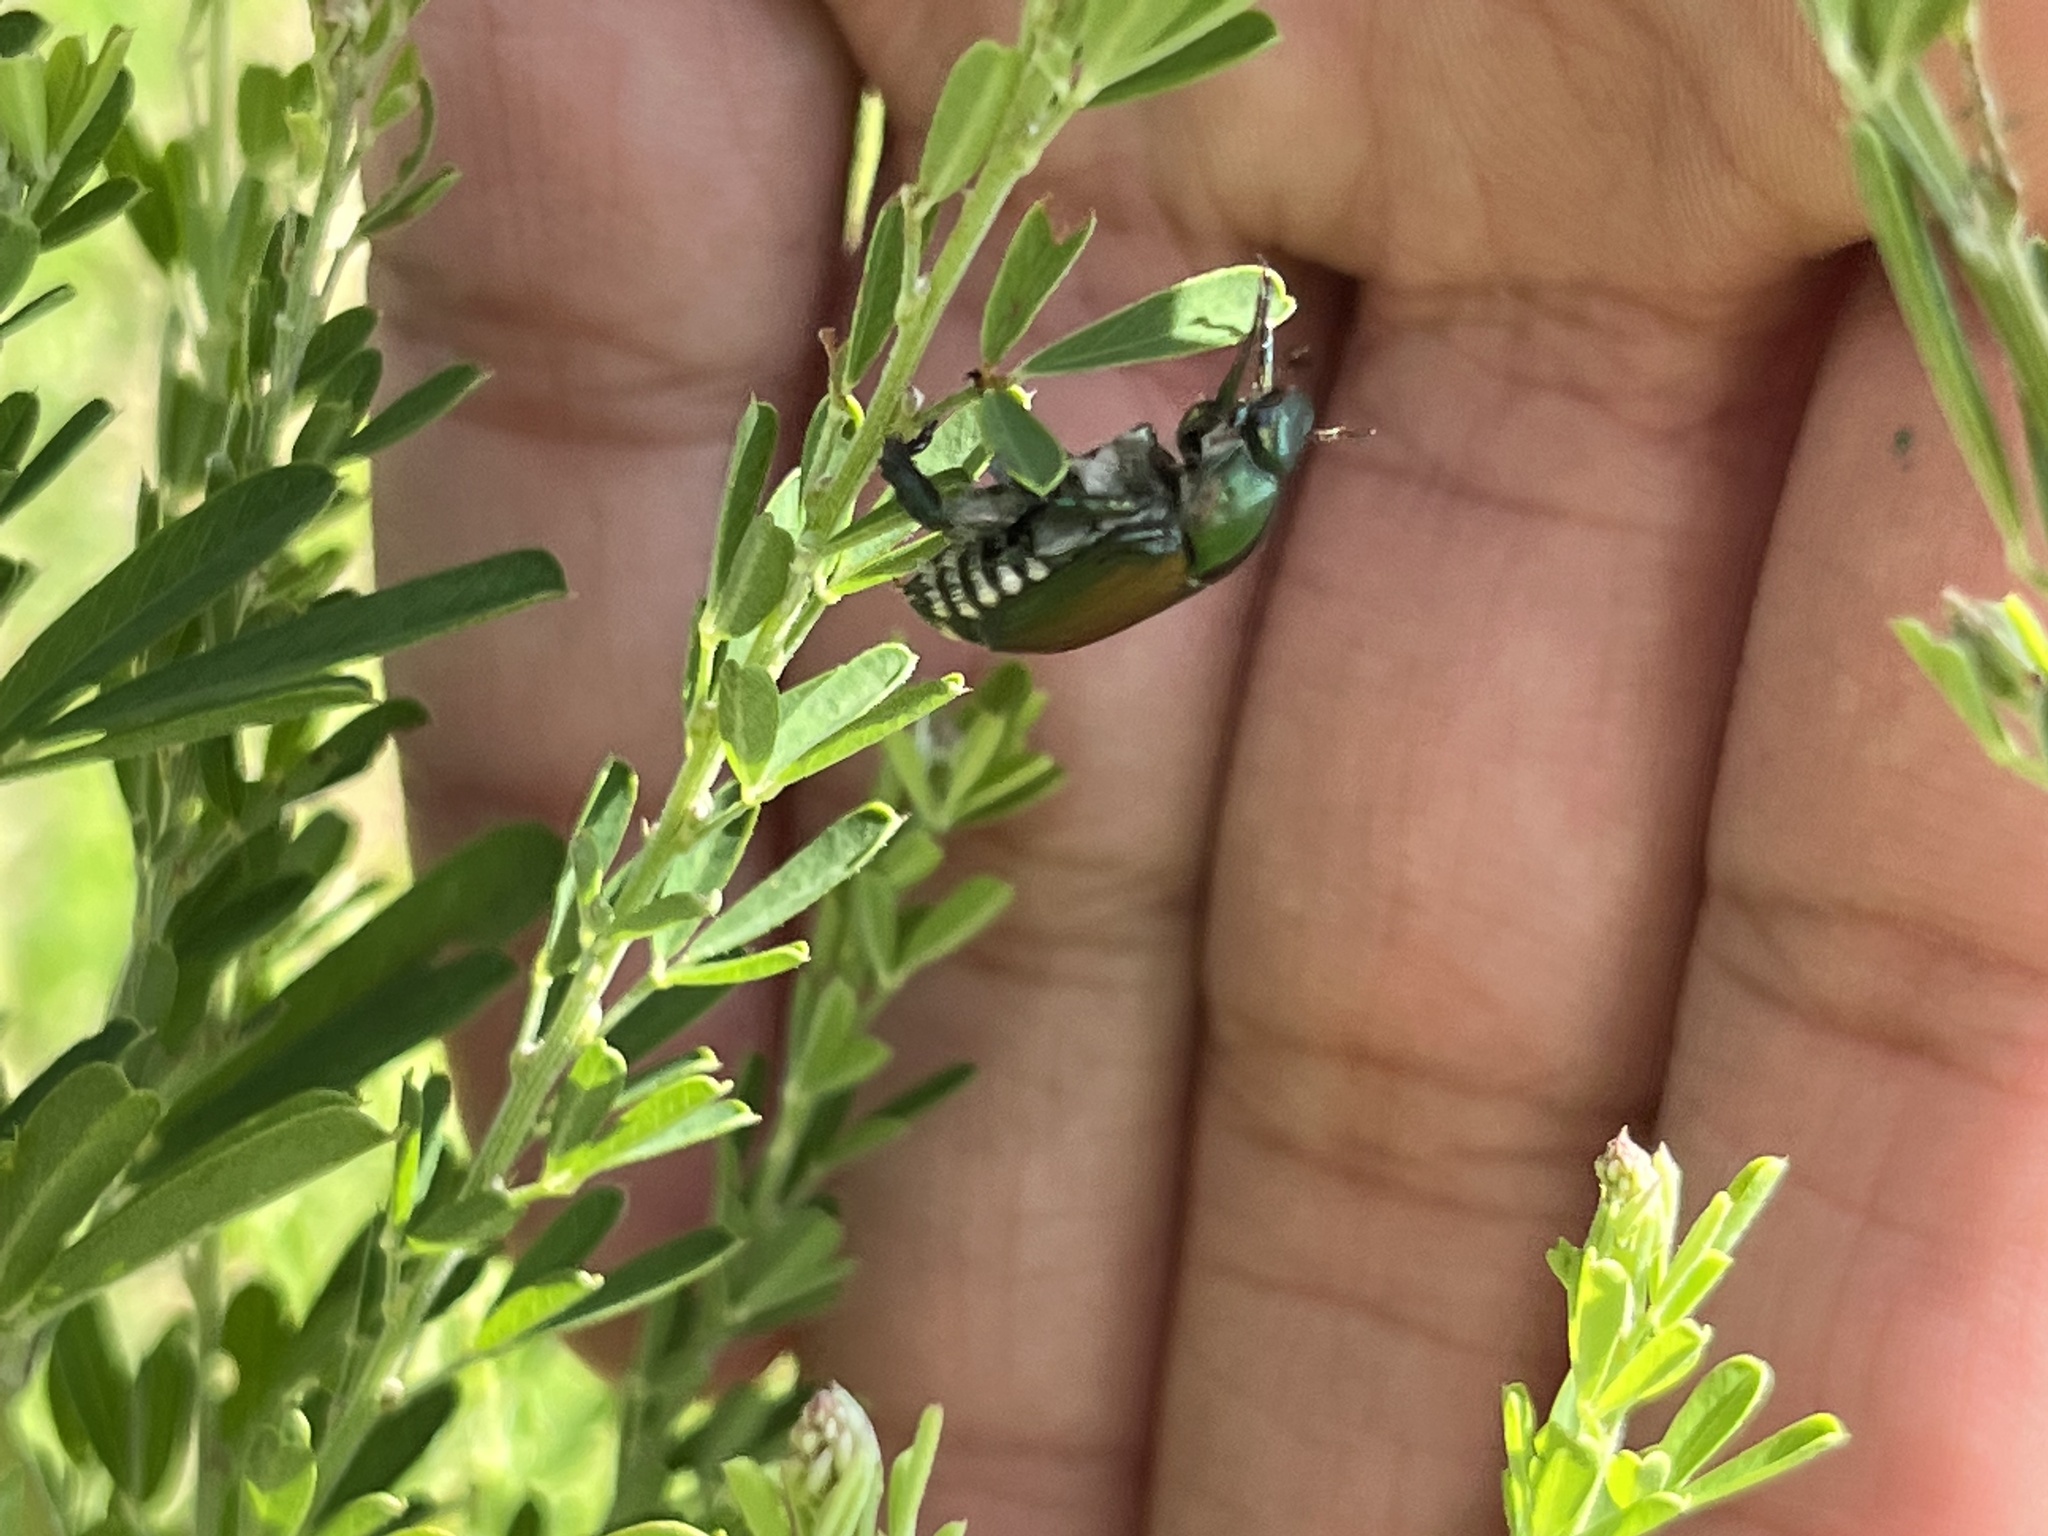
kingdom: Animalia
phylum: Arthropoda
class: Insecta
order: Coleoptera
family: Scarabaeidae
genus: Popillia
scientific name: Popillia japonica
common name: Japanese beetle
